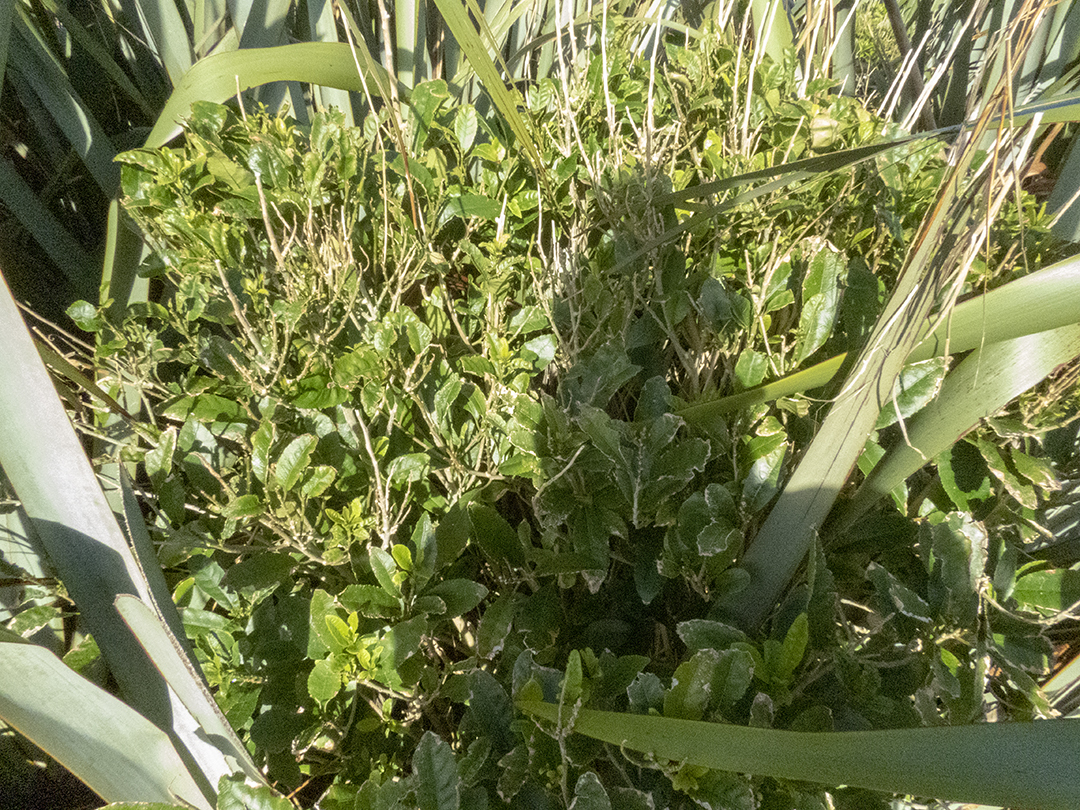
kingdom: Plantae
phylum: Tracheophyta
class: Magnoliopsida
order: Malpighiales
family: Violaceae
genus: Melicytus
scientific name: Melicytus ramiflorus
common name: Mahoe
